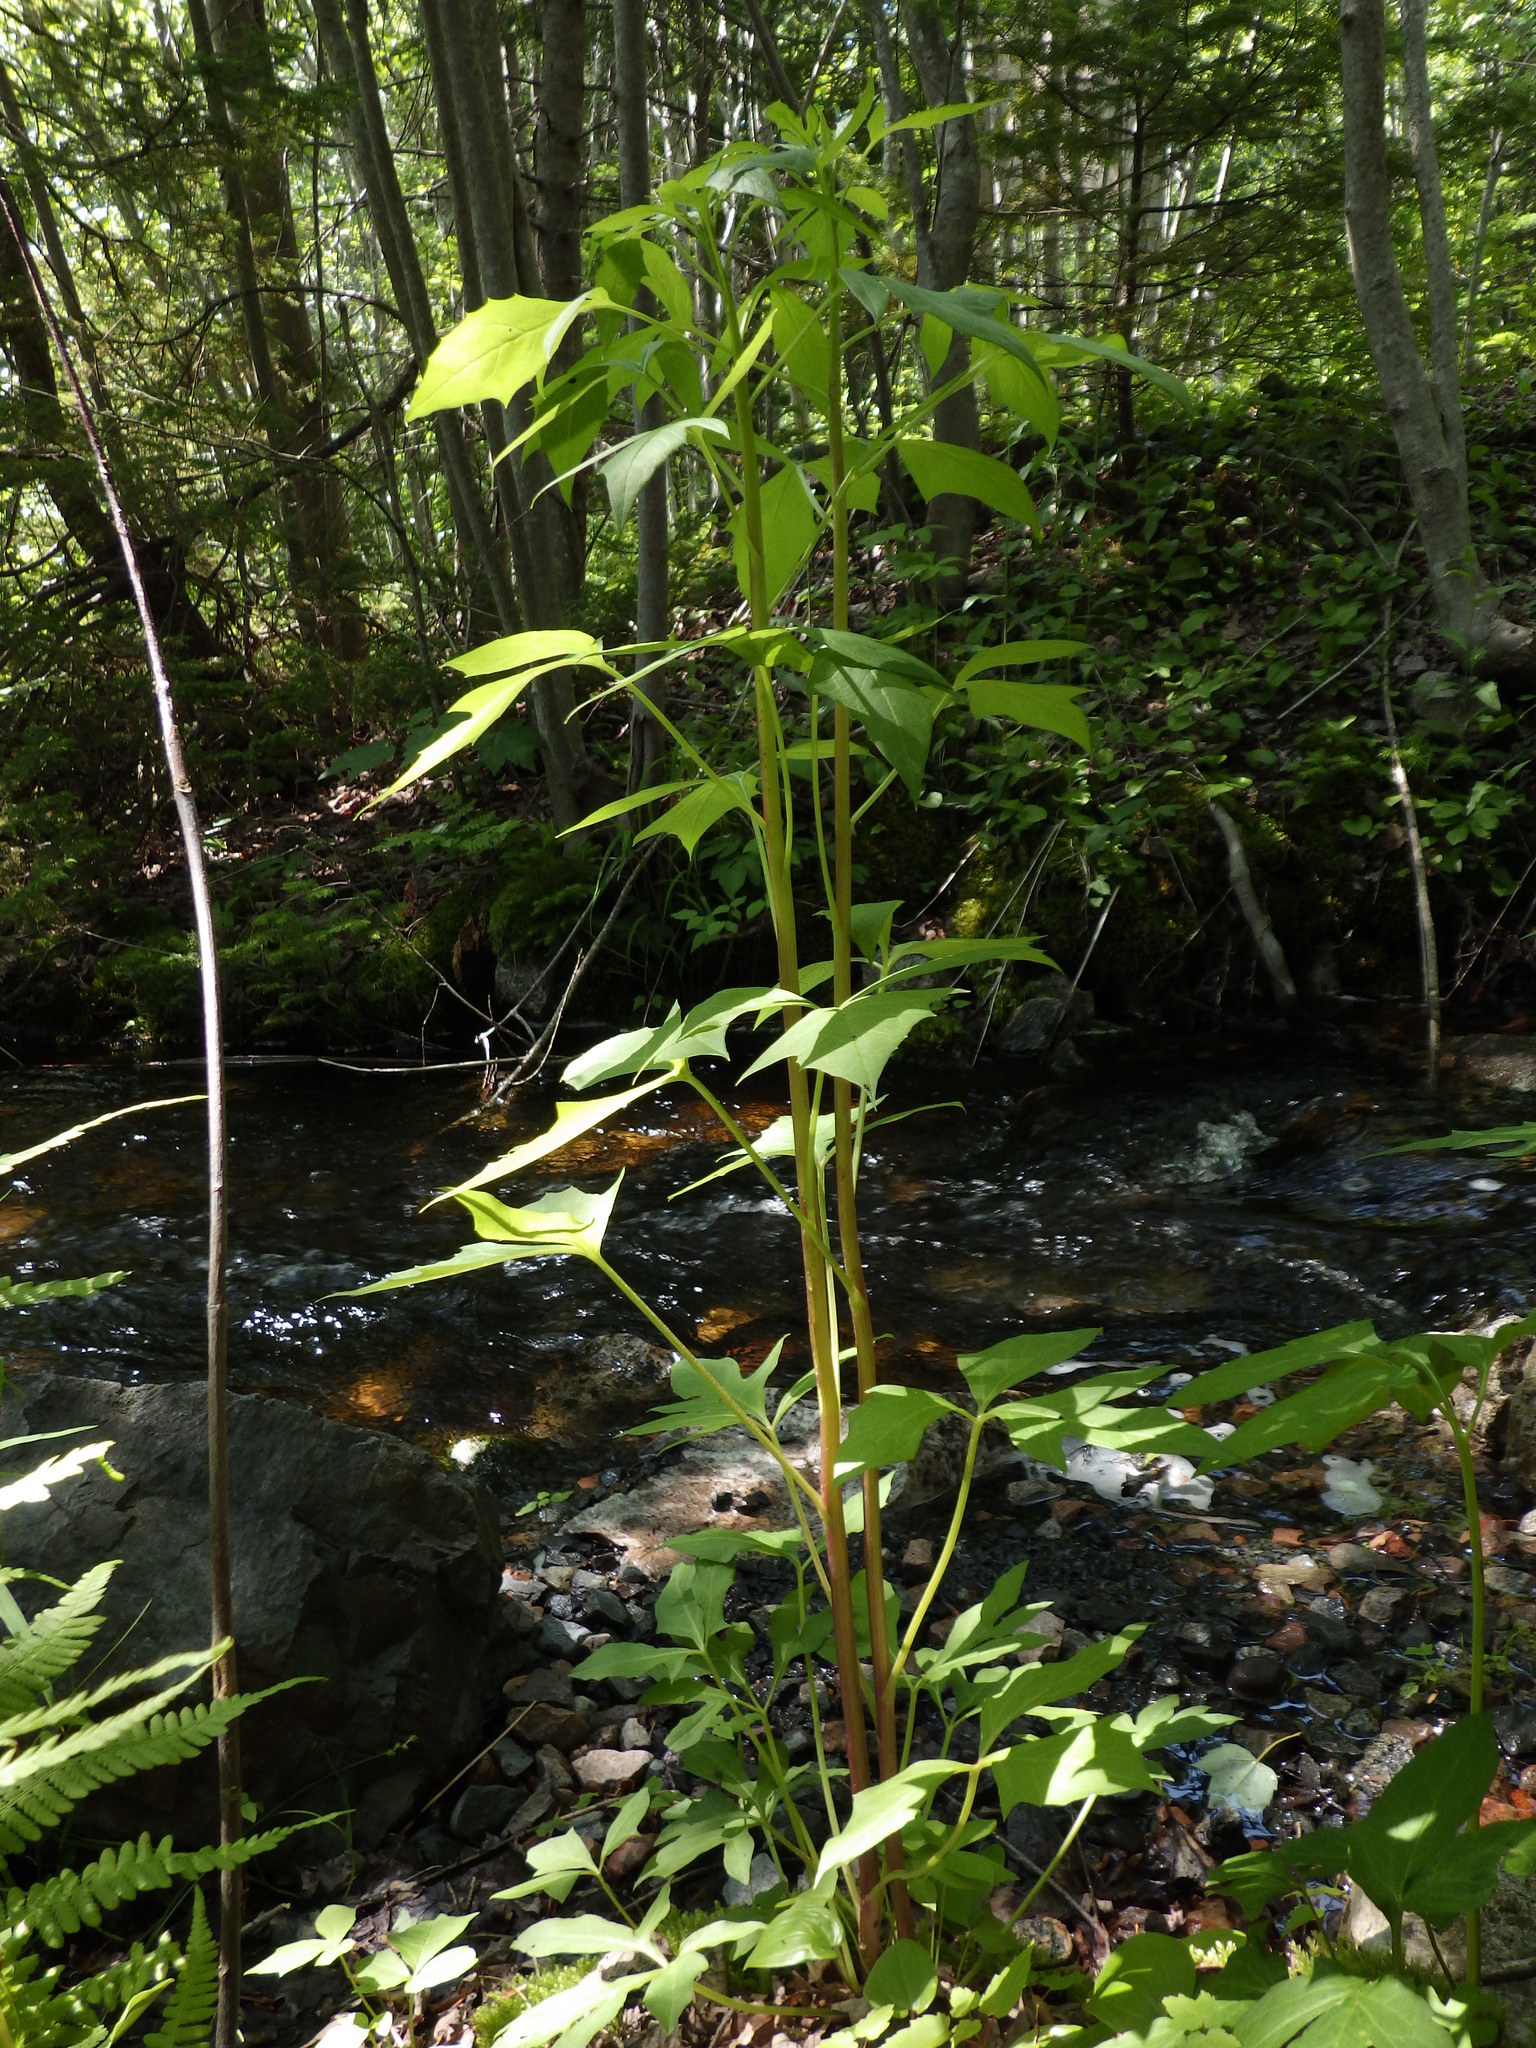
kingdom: Plantae
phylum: Tracheophyta
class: Magnoliopsida
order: Asterales
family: Asteraceae
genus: Nabalus
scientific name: Nabalus trifoliolatus
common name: Gall-of-the-earth
